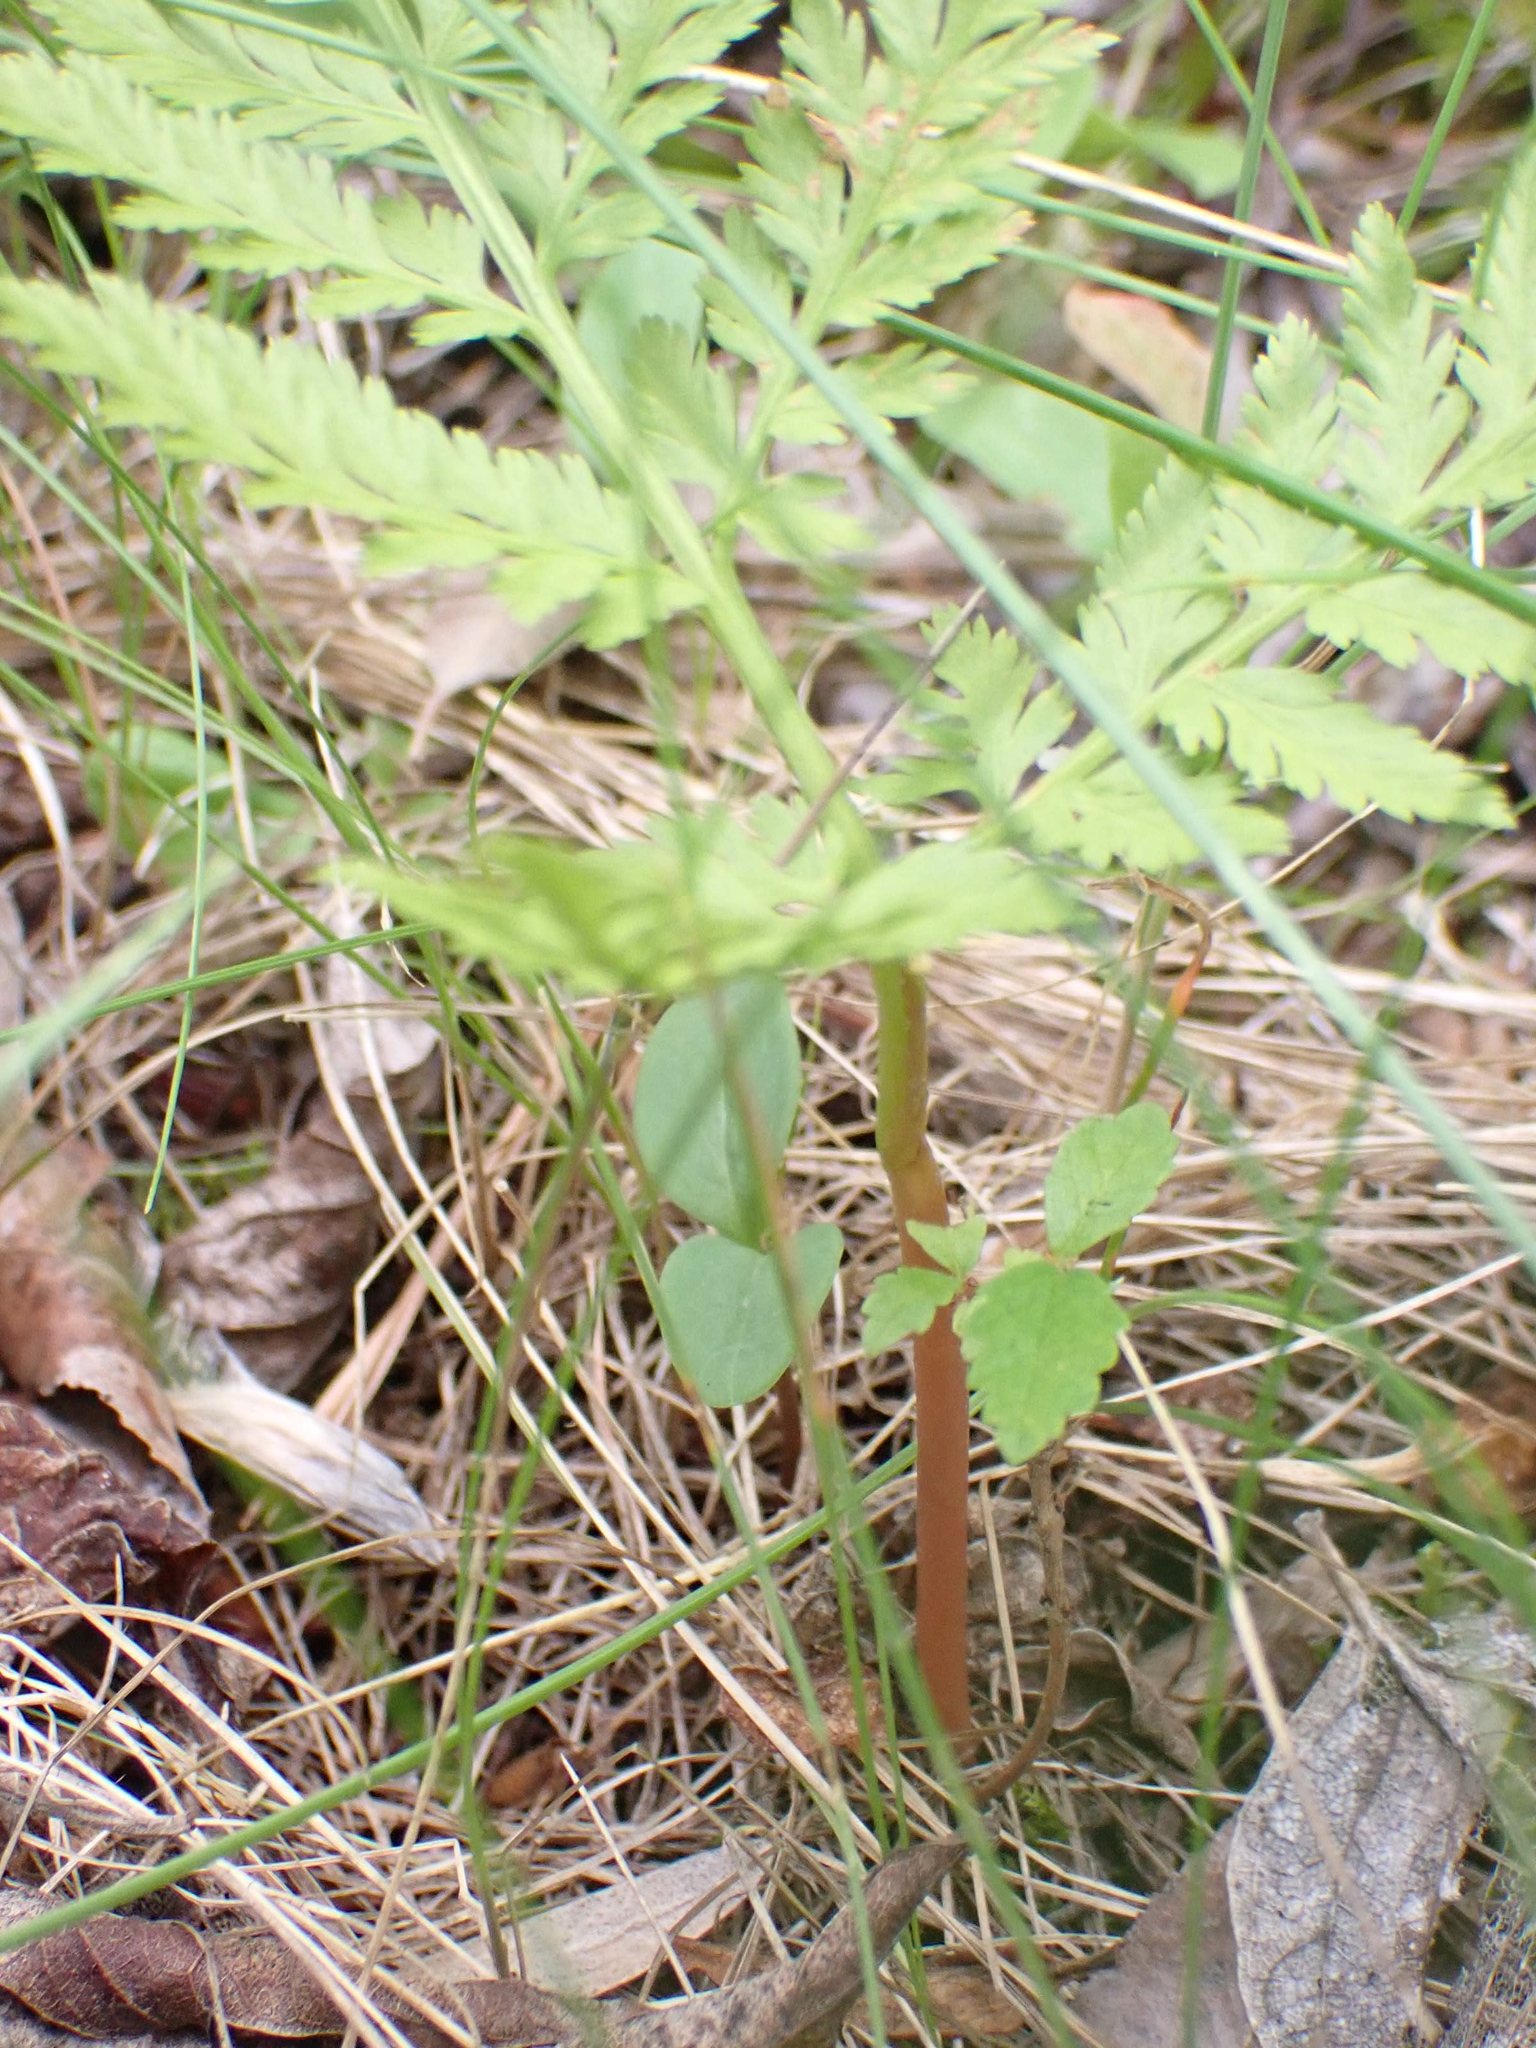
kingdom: Plantae
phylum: Tracheophyta
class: Polypodiopsida
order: Ophioglossales
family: Ophioglossaceae
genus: Botrypus
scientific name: Botrypus virginianus
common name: Common grapefern
